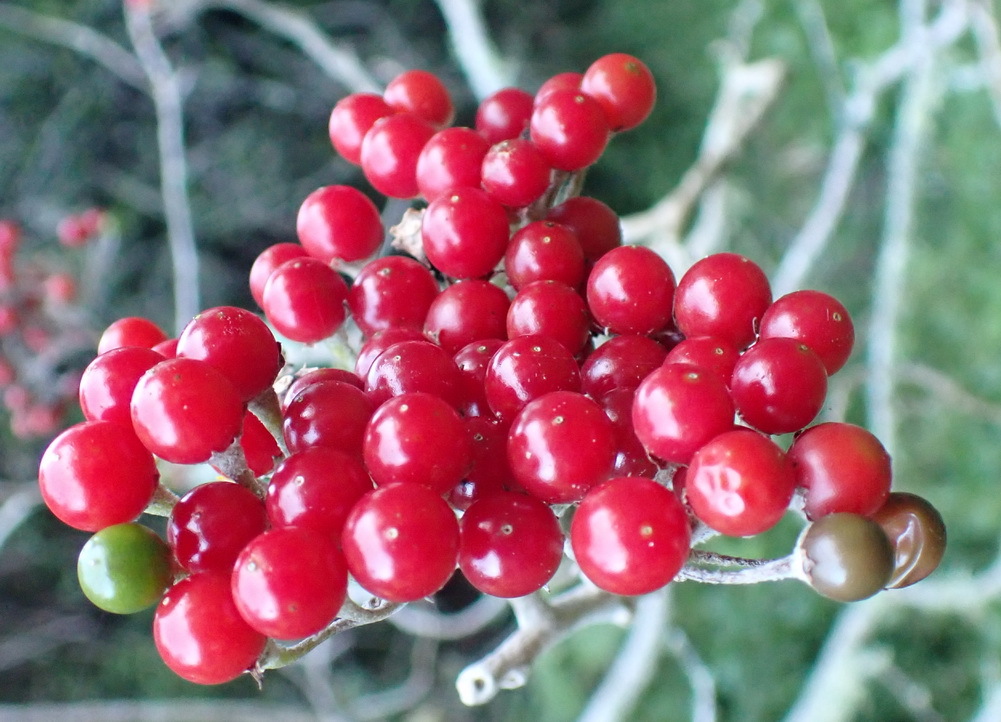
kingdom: Plantae
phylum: Tracheophyta
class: Magnoliopsida
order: Solanales
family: Solanaceae
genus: Solanum
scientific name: Solanum giganteum
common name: Healing-leaf-tree
